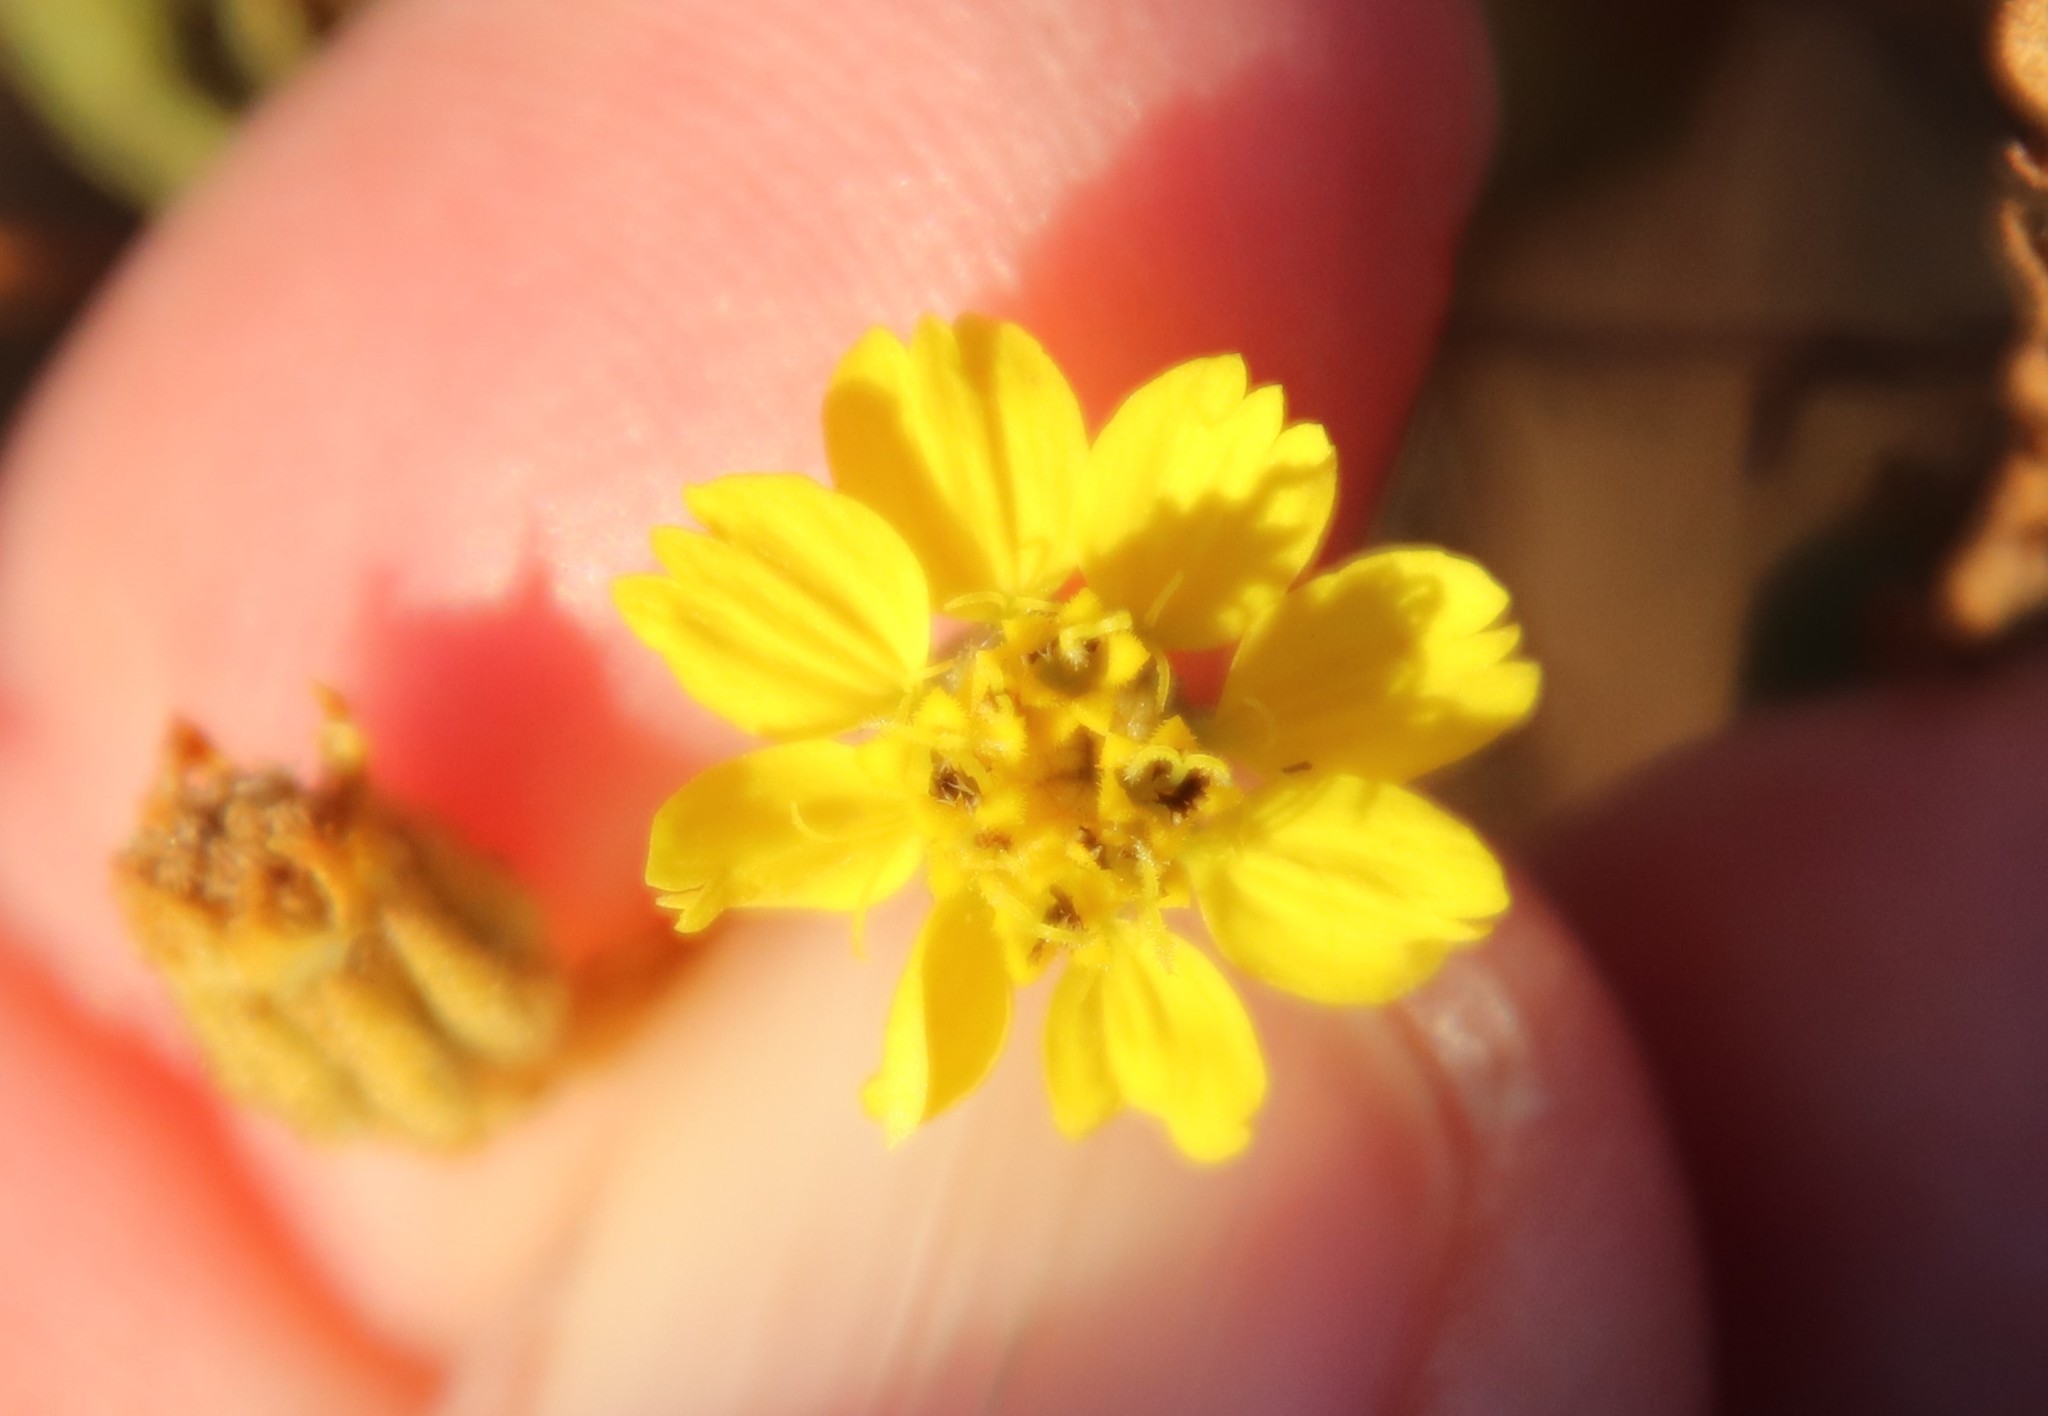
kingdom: Plantae
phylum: Tracheophyta
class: Magnoliopsida
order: Asterales
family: Asteraceae
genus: Deinandra
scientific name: Deinandra paniculata
